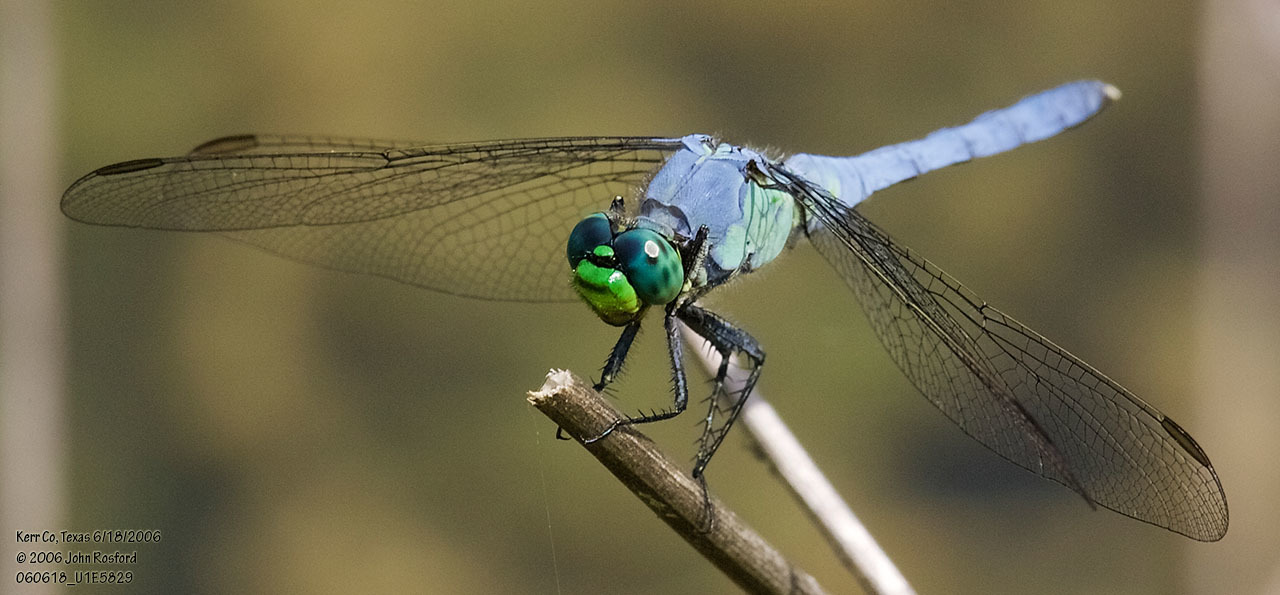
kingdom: Animalia
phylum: Arthropoda
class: Insecta
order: Odonata
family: Libellulidae
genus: Erythemis
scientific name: Erythemis simplicicollis
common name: Eastern pondhawk
